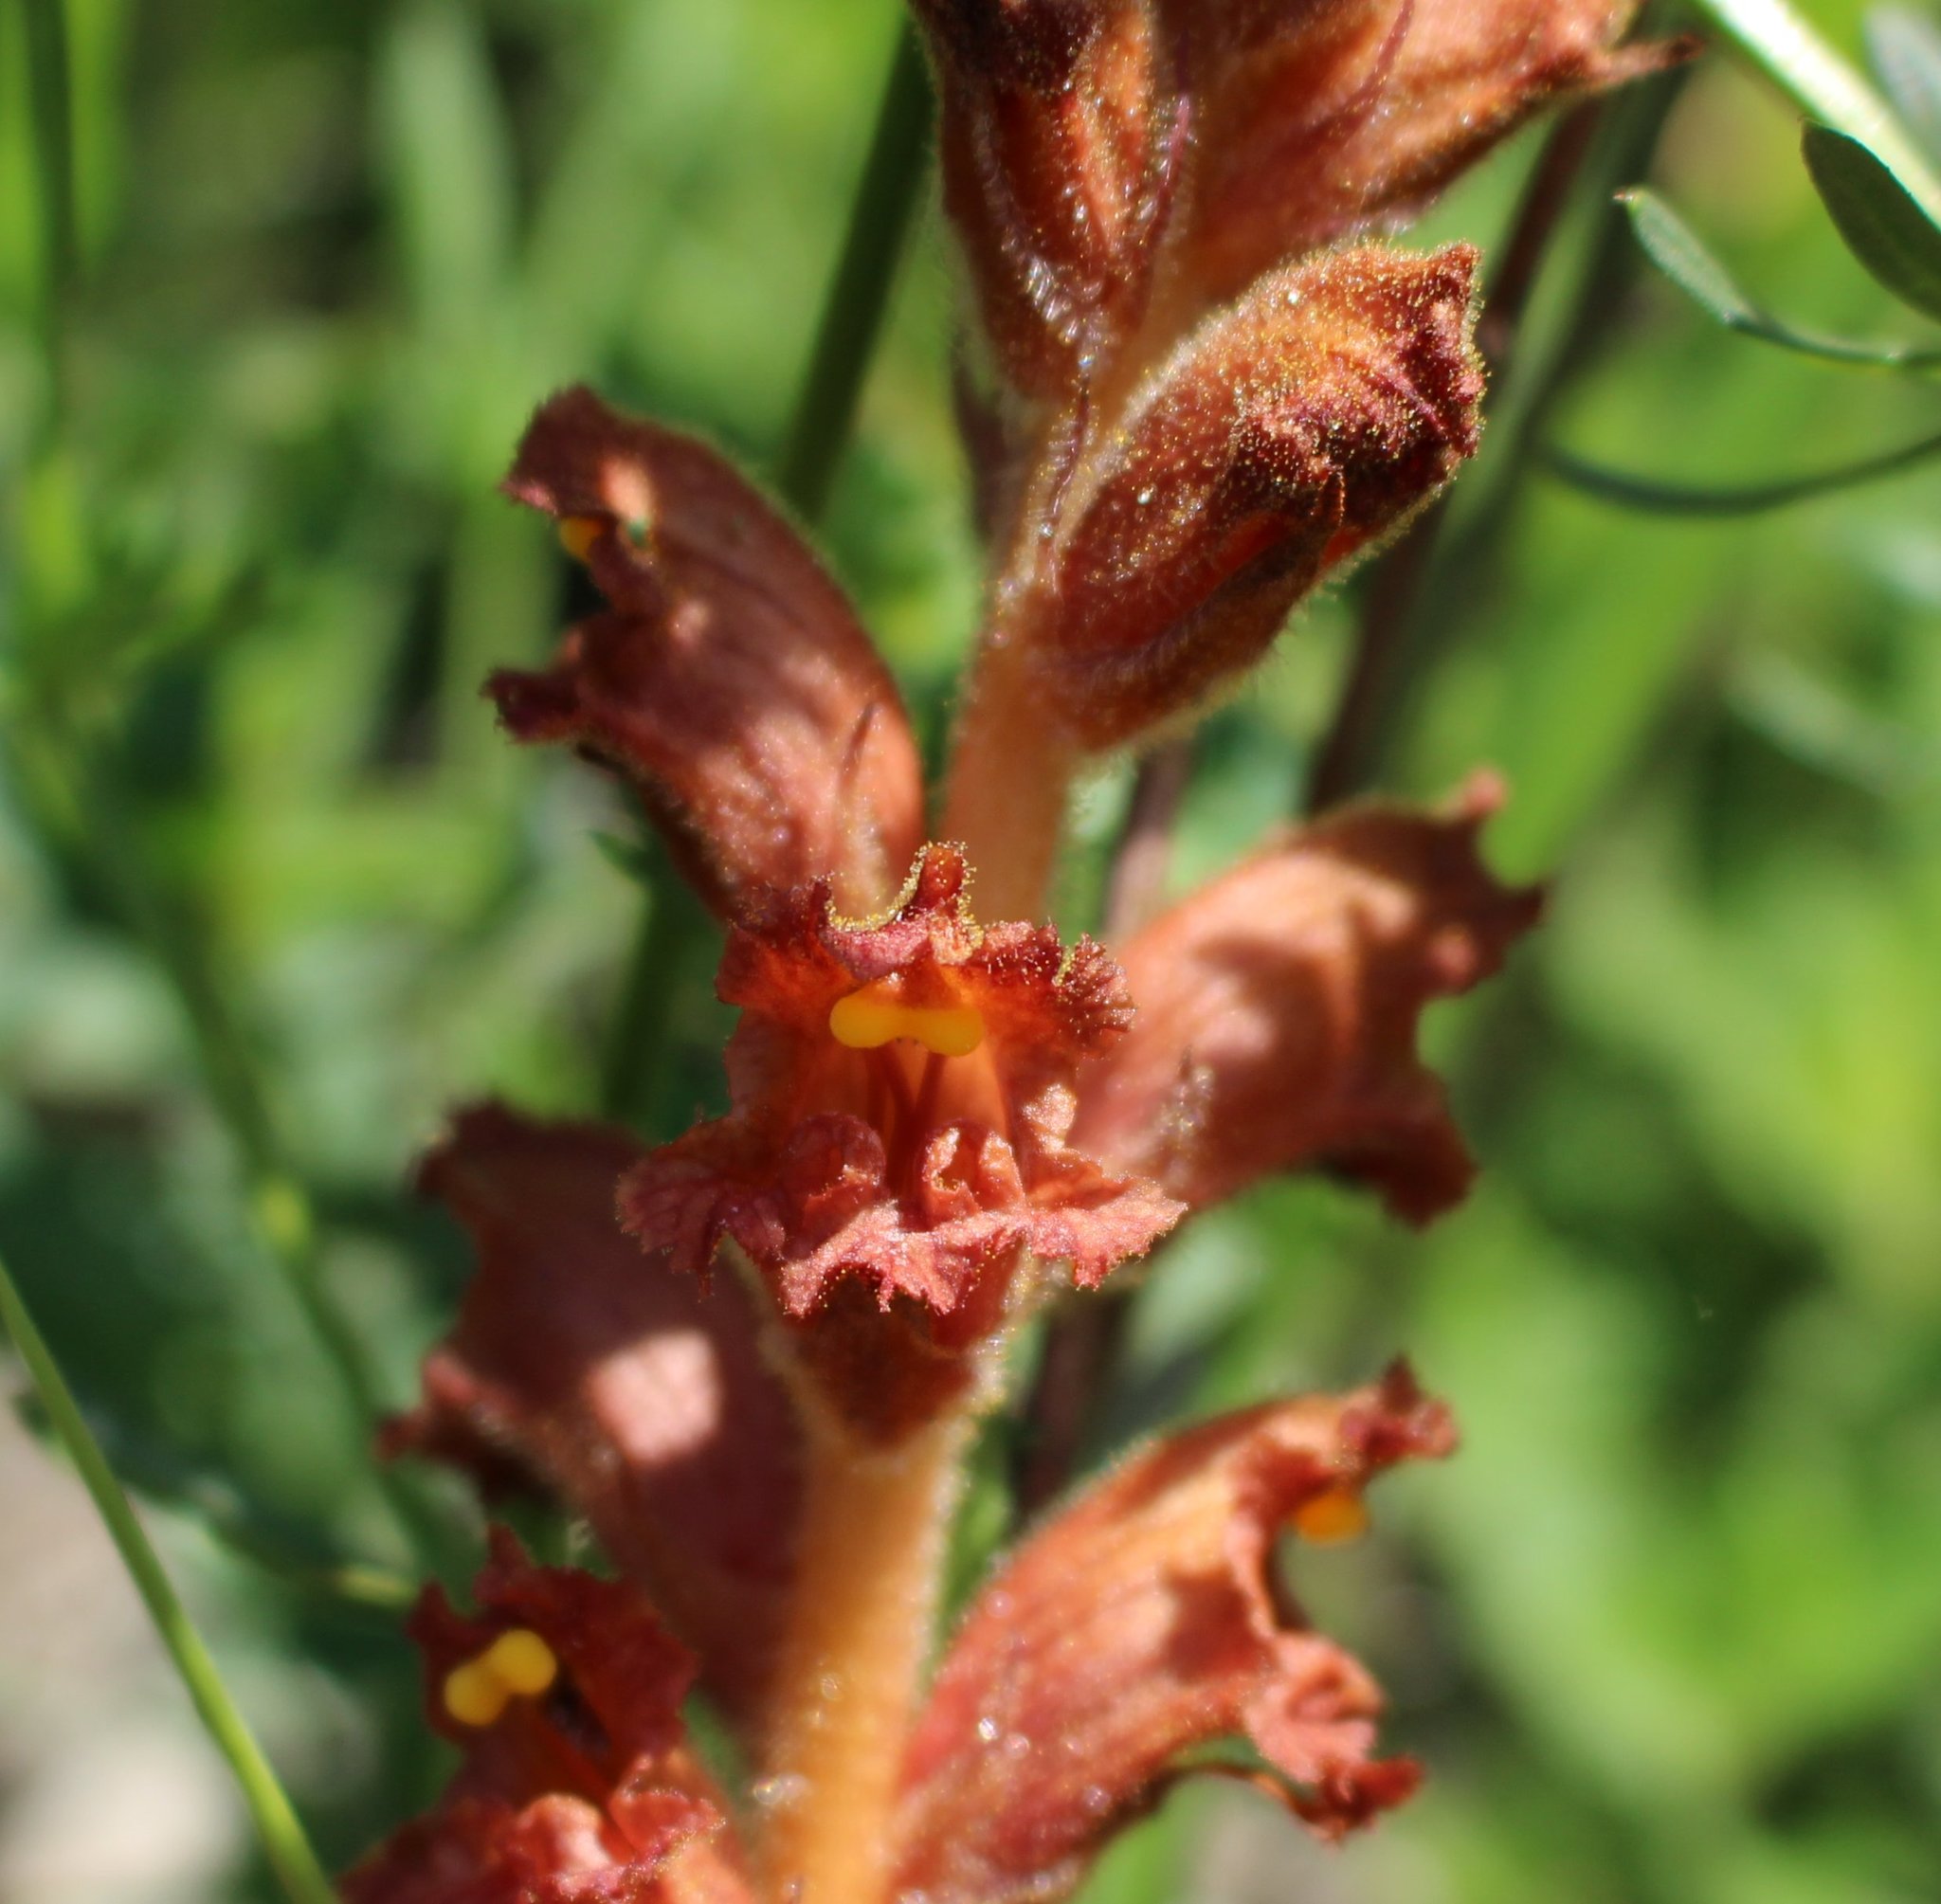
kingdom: Plantae
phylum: Tracheophyta
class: Magnoliopsida
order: Lamiales
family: Orobanchaceae
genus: Orobanche
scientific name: Orobanche alba
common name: Thyme broomrape
